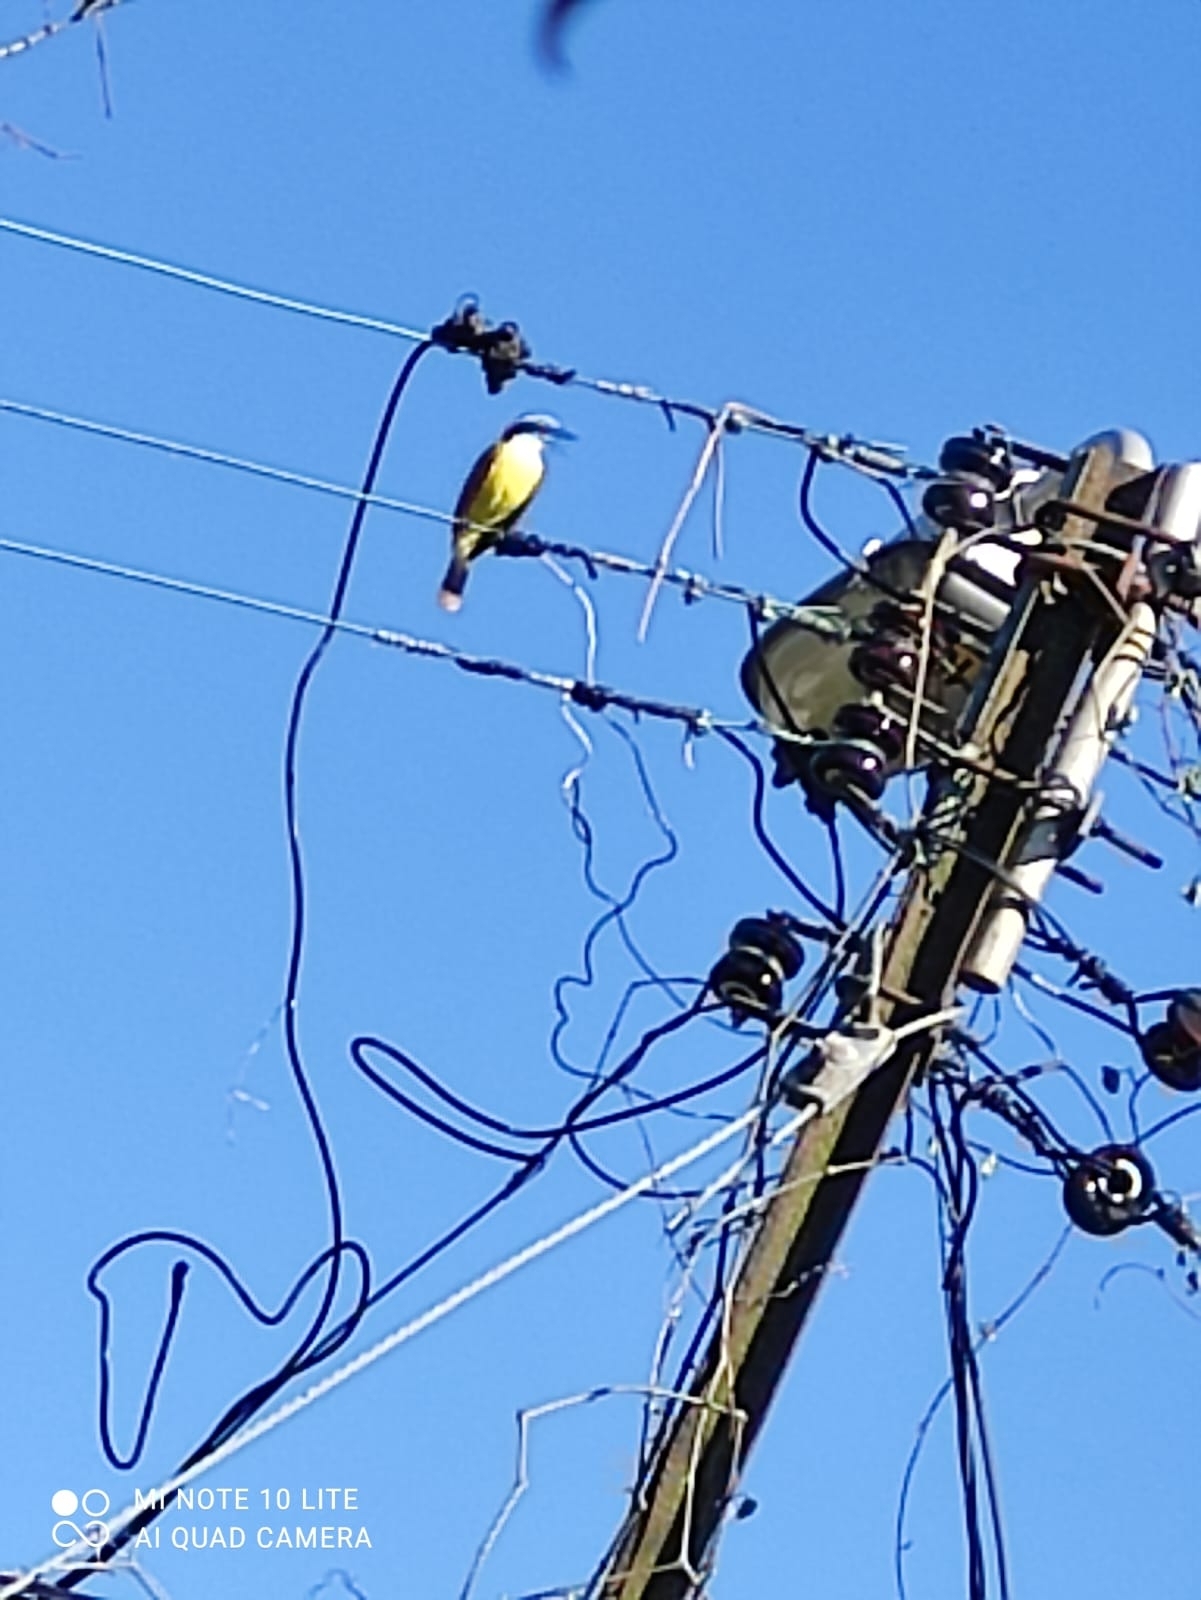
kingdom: Animalia
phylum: Chordata
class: Aves
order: Passeriformes
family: Tyrannidae
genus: Pitangus
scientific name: Pitangus sulphuratus
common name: Great kiskadee
